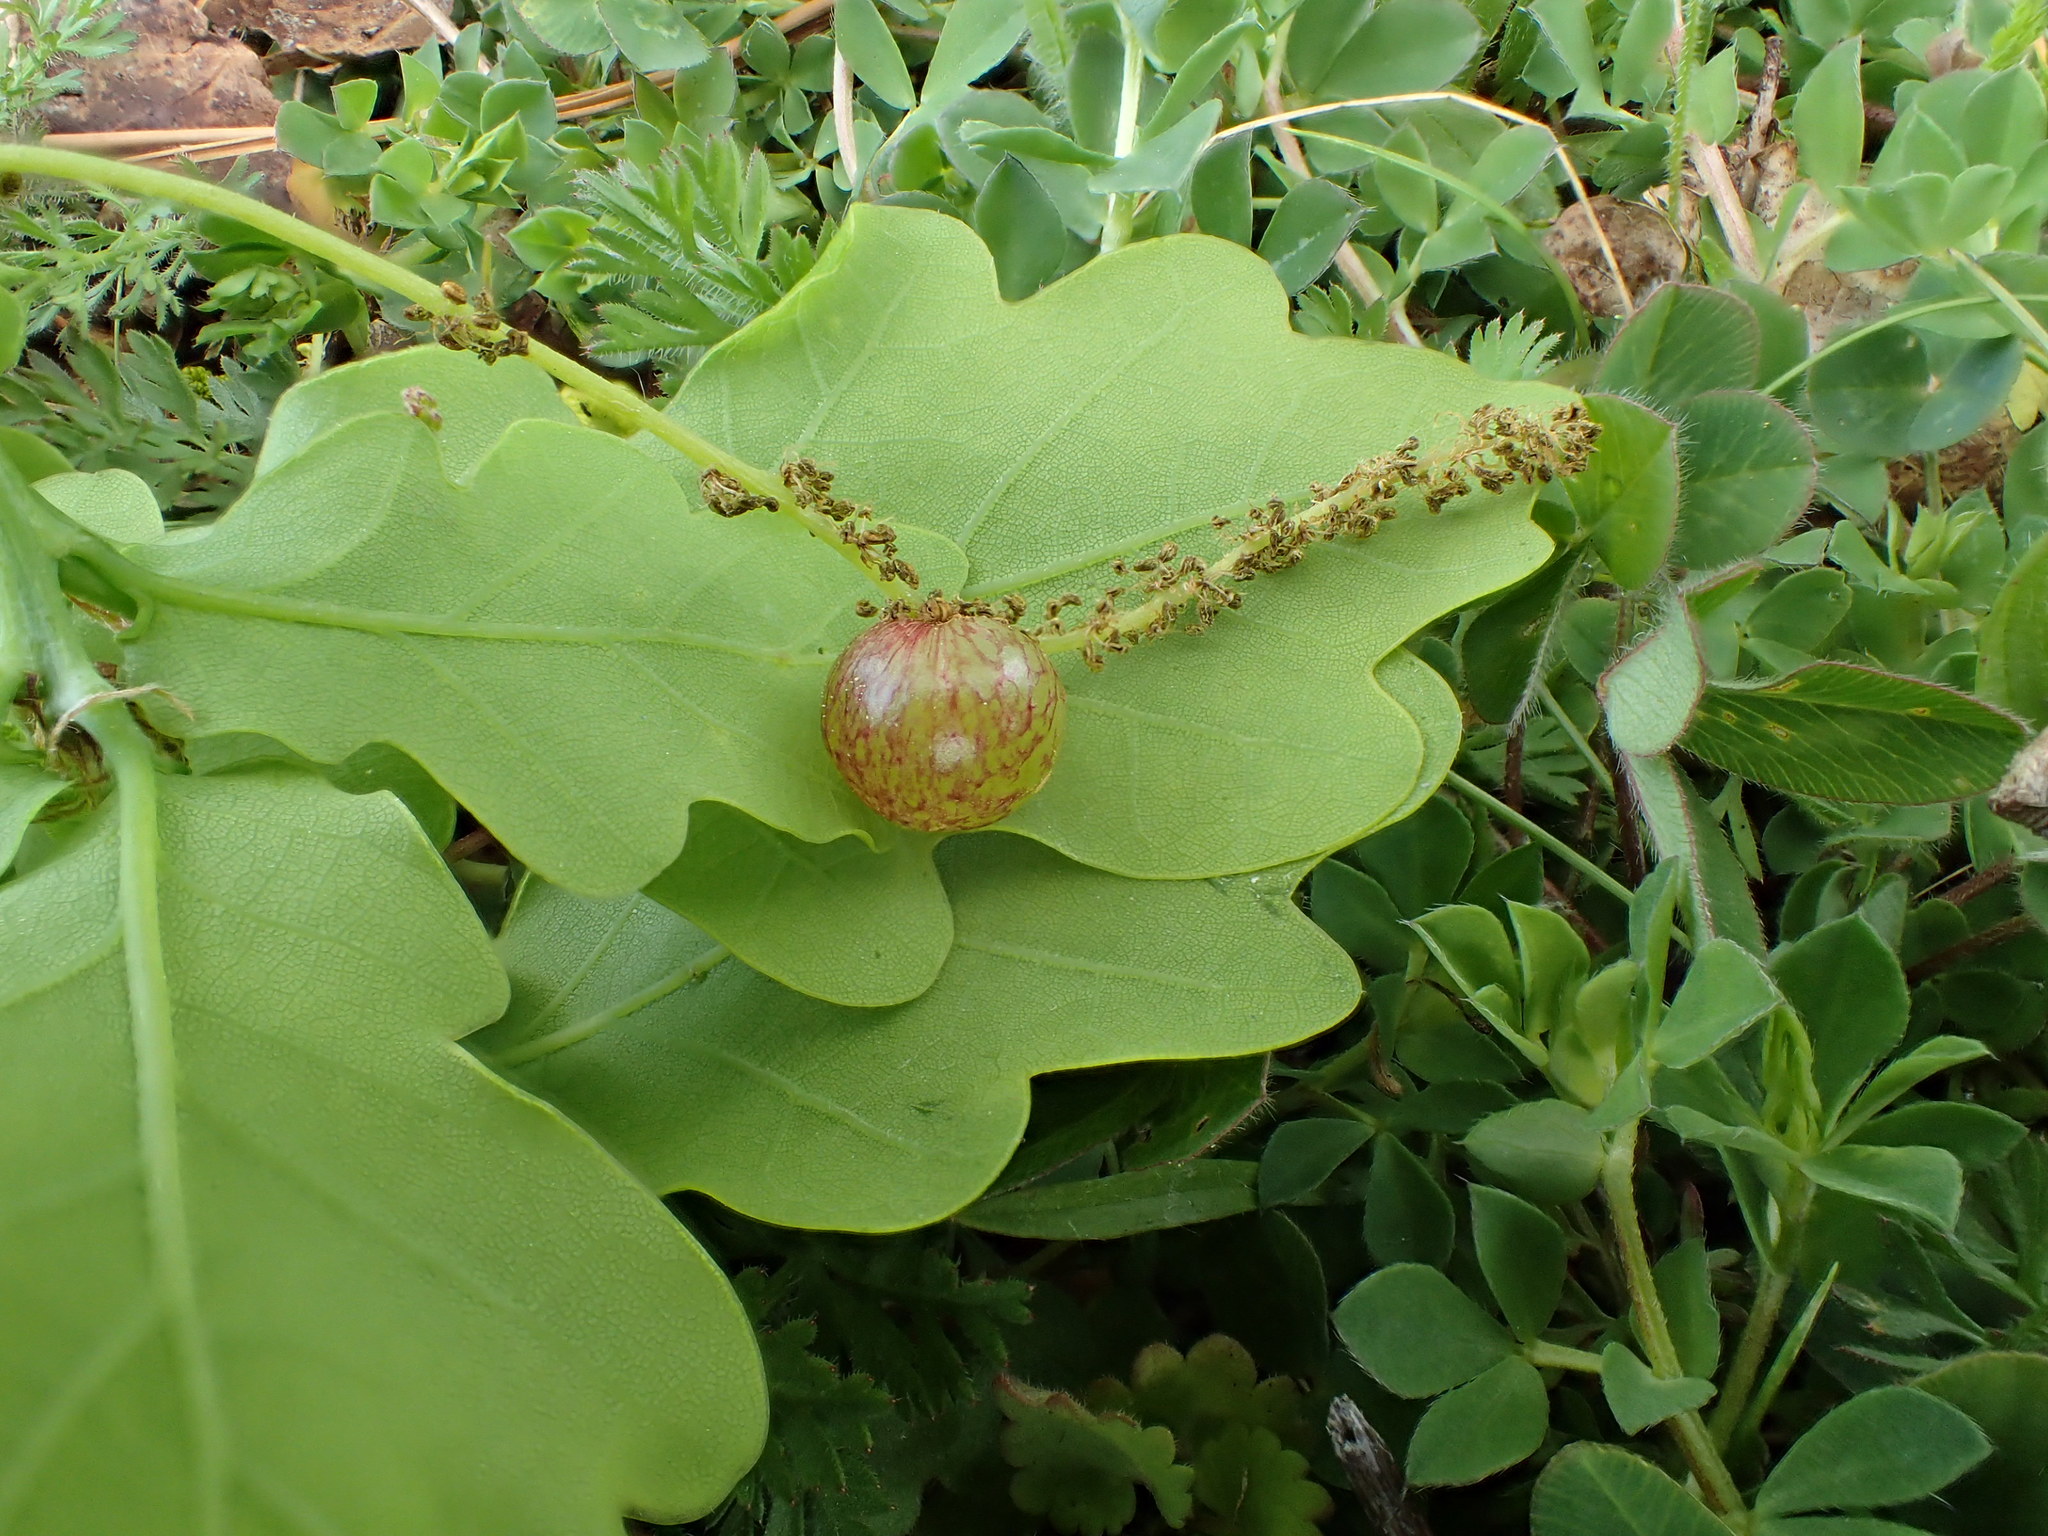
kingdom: Animalia
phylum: Arthropoda
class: Insecta
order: Hymenoptera
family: Cynipidae
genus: Neuroterus
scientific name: Neuroterus quercusbaccarum
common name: Common spangle gall
